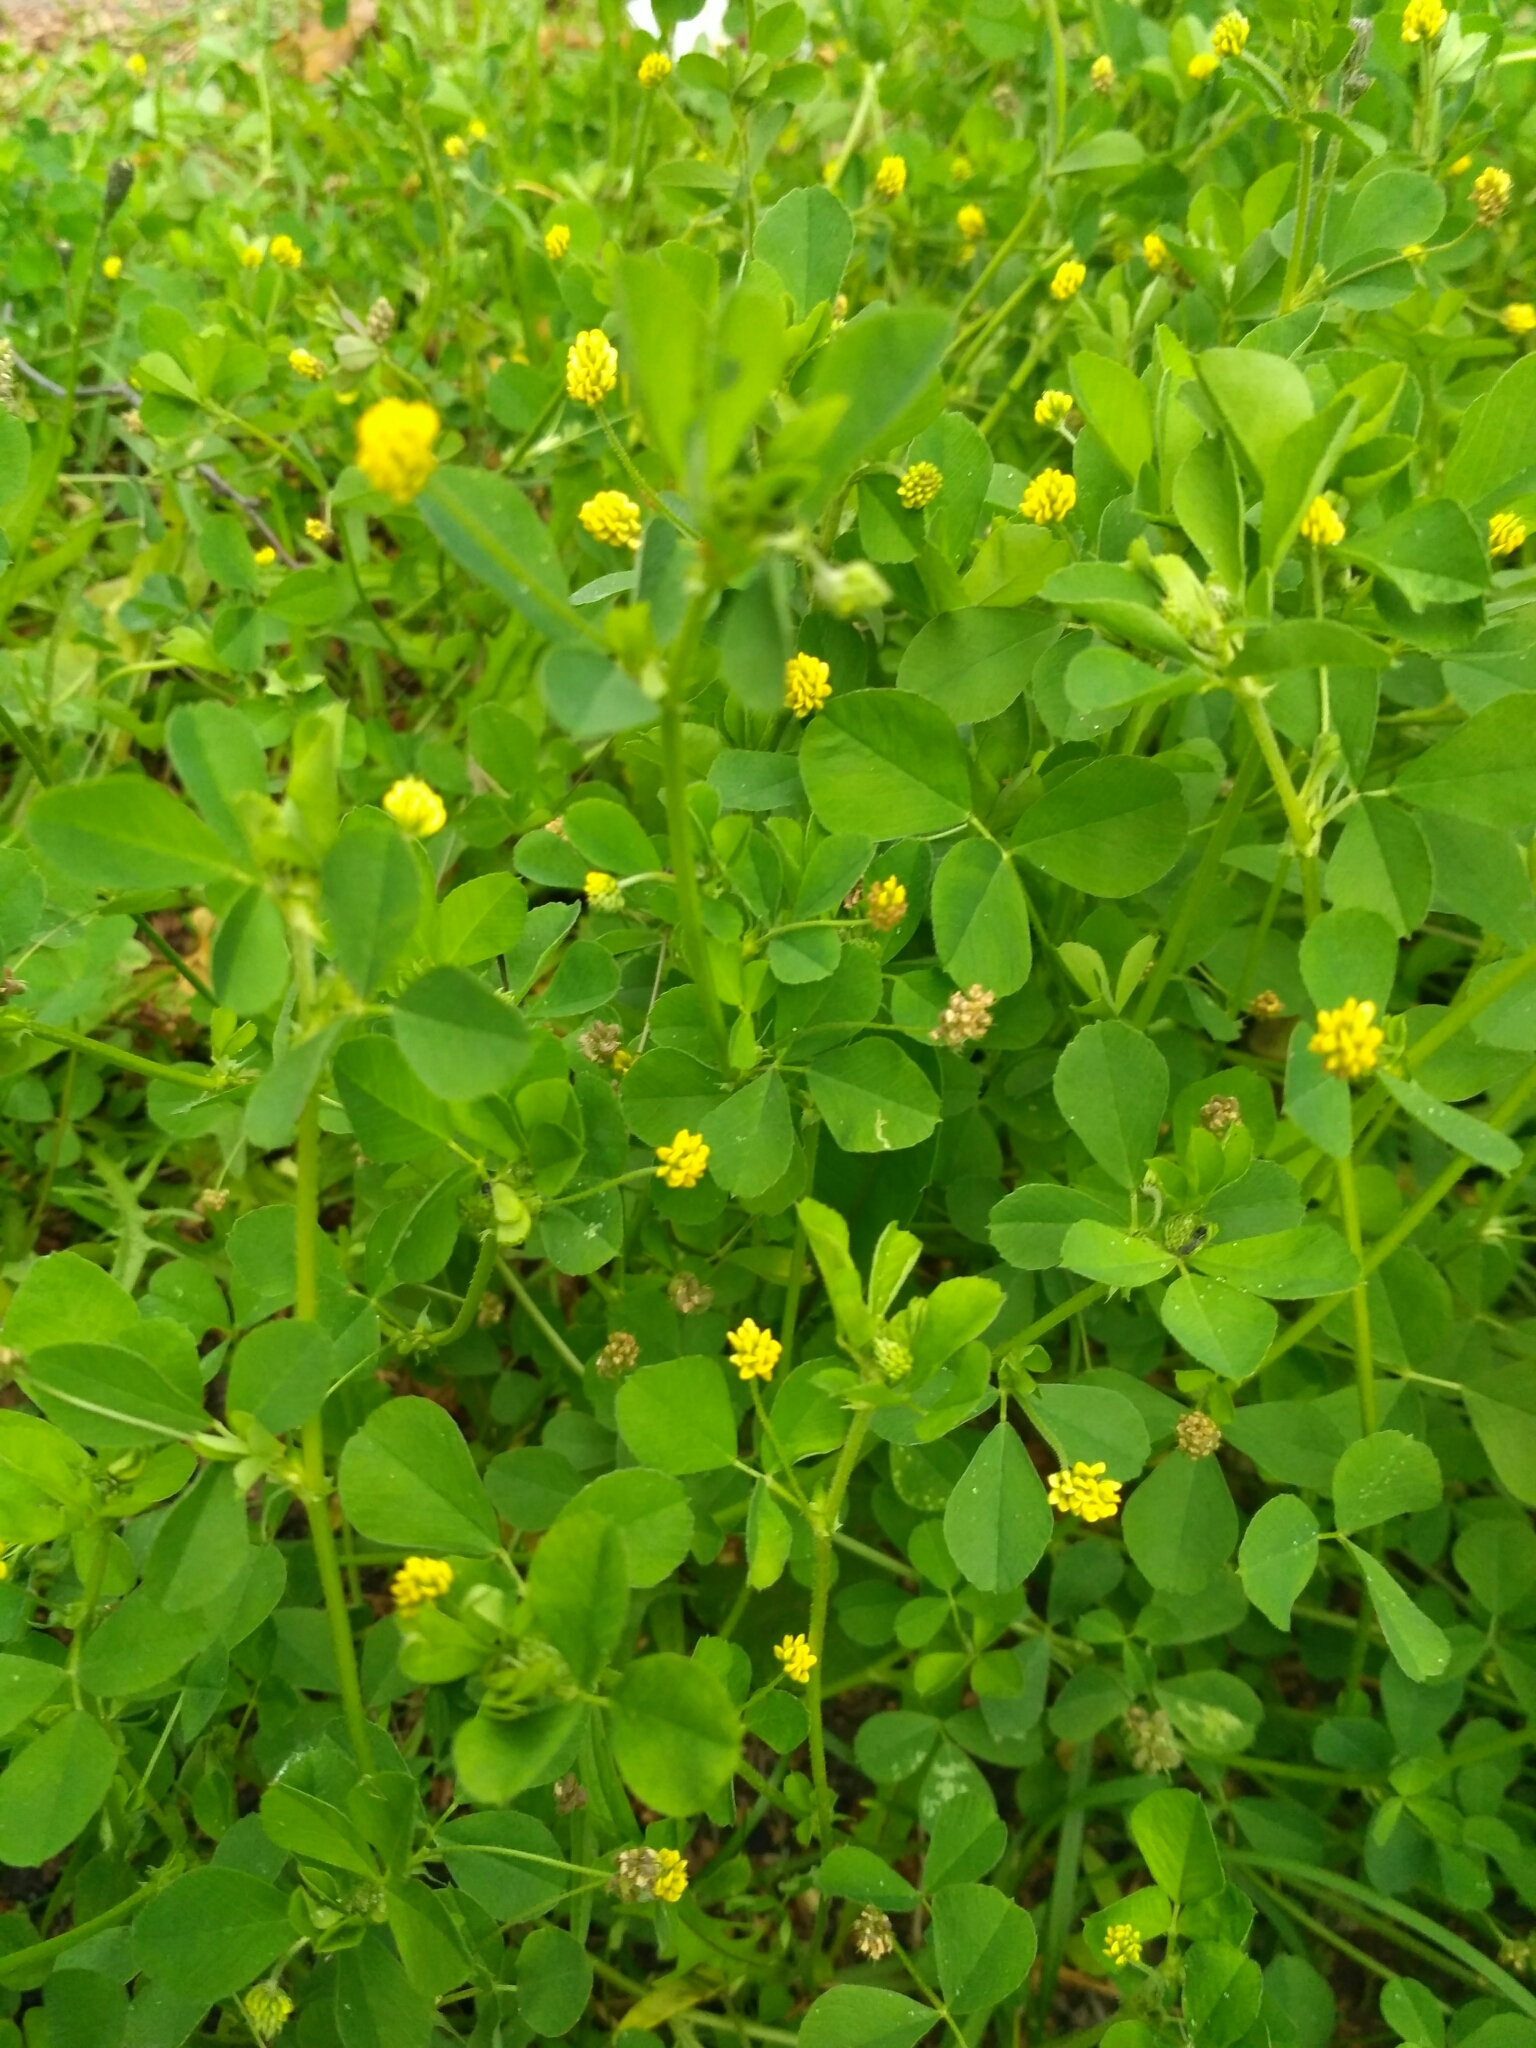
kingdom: Plantae
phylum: Tracheophyta
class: Magnoliopsida
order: Fabales
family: Fabaceae
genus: Medicago
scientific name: Medicago lupulina
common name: Black medick
